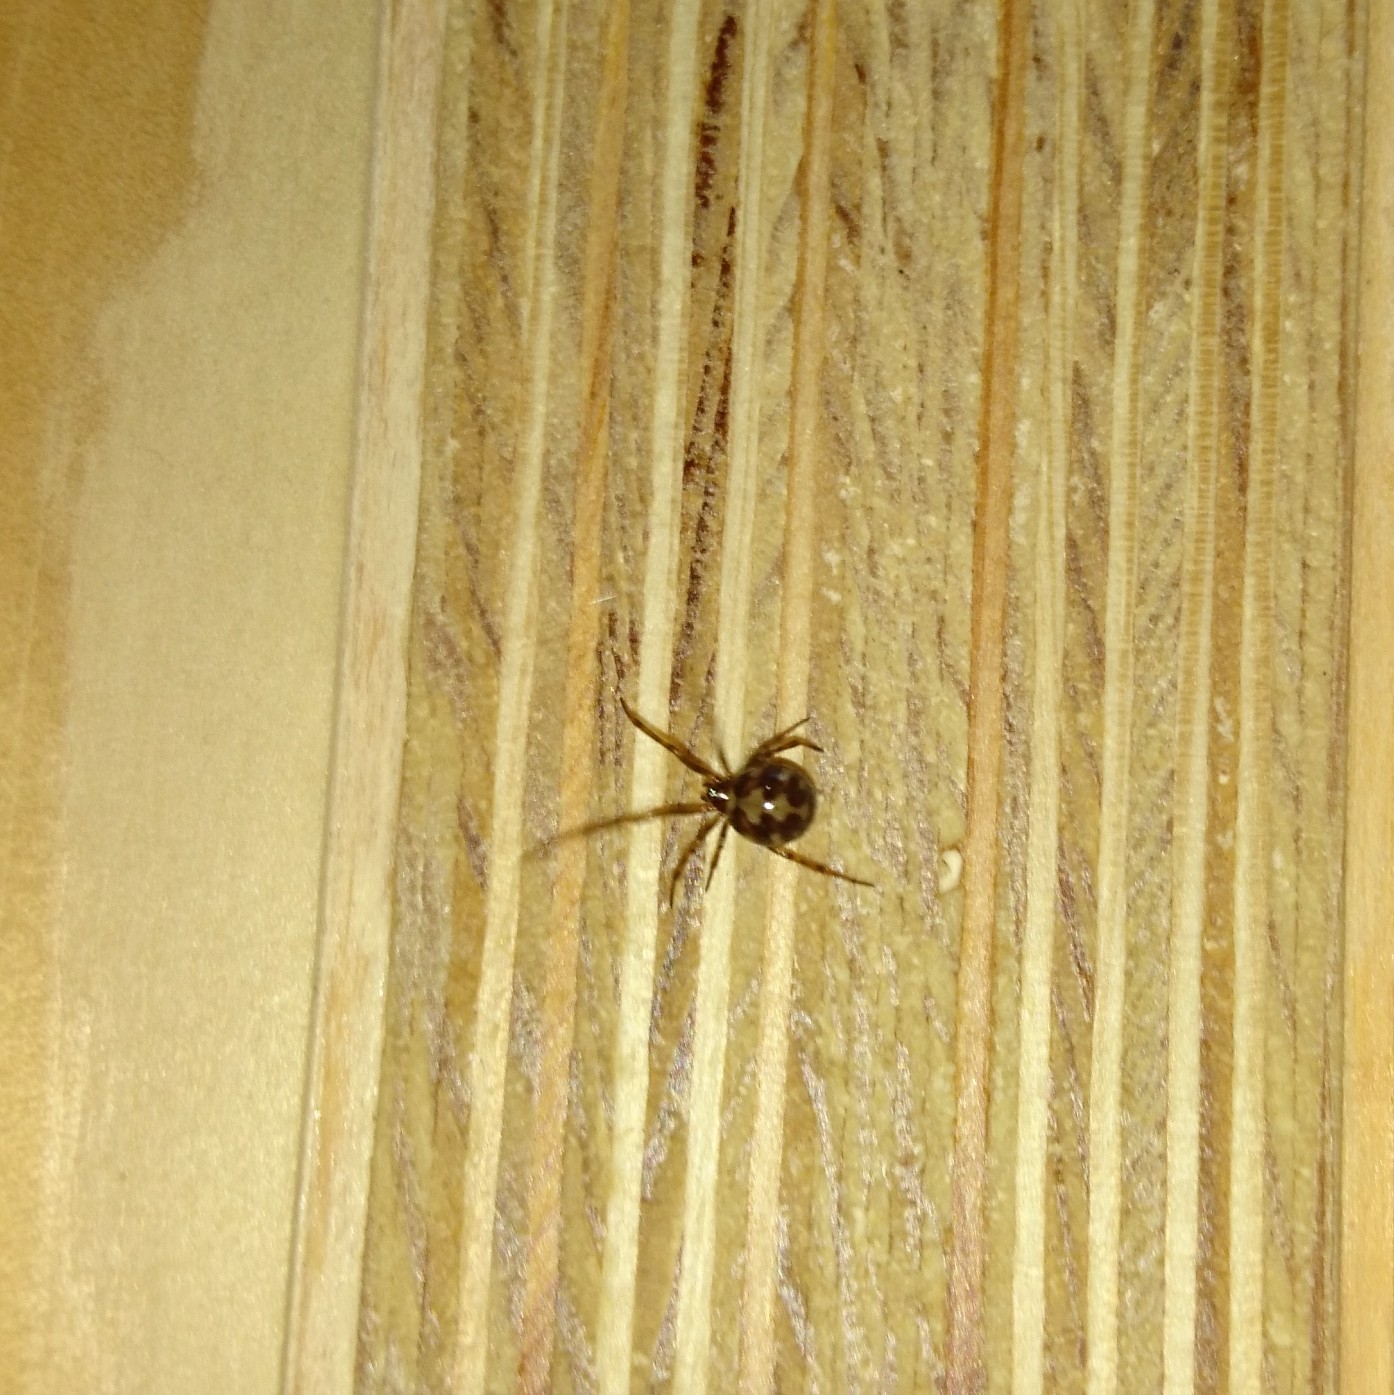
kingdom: Animalia
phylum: Arthropoda
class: Arachnida
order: Araneae
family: Theridiidae
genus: Steatoda
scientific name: Steatoda triangulosa
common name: Triangulate bud spider
